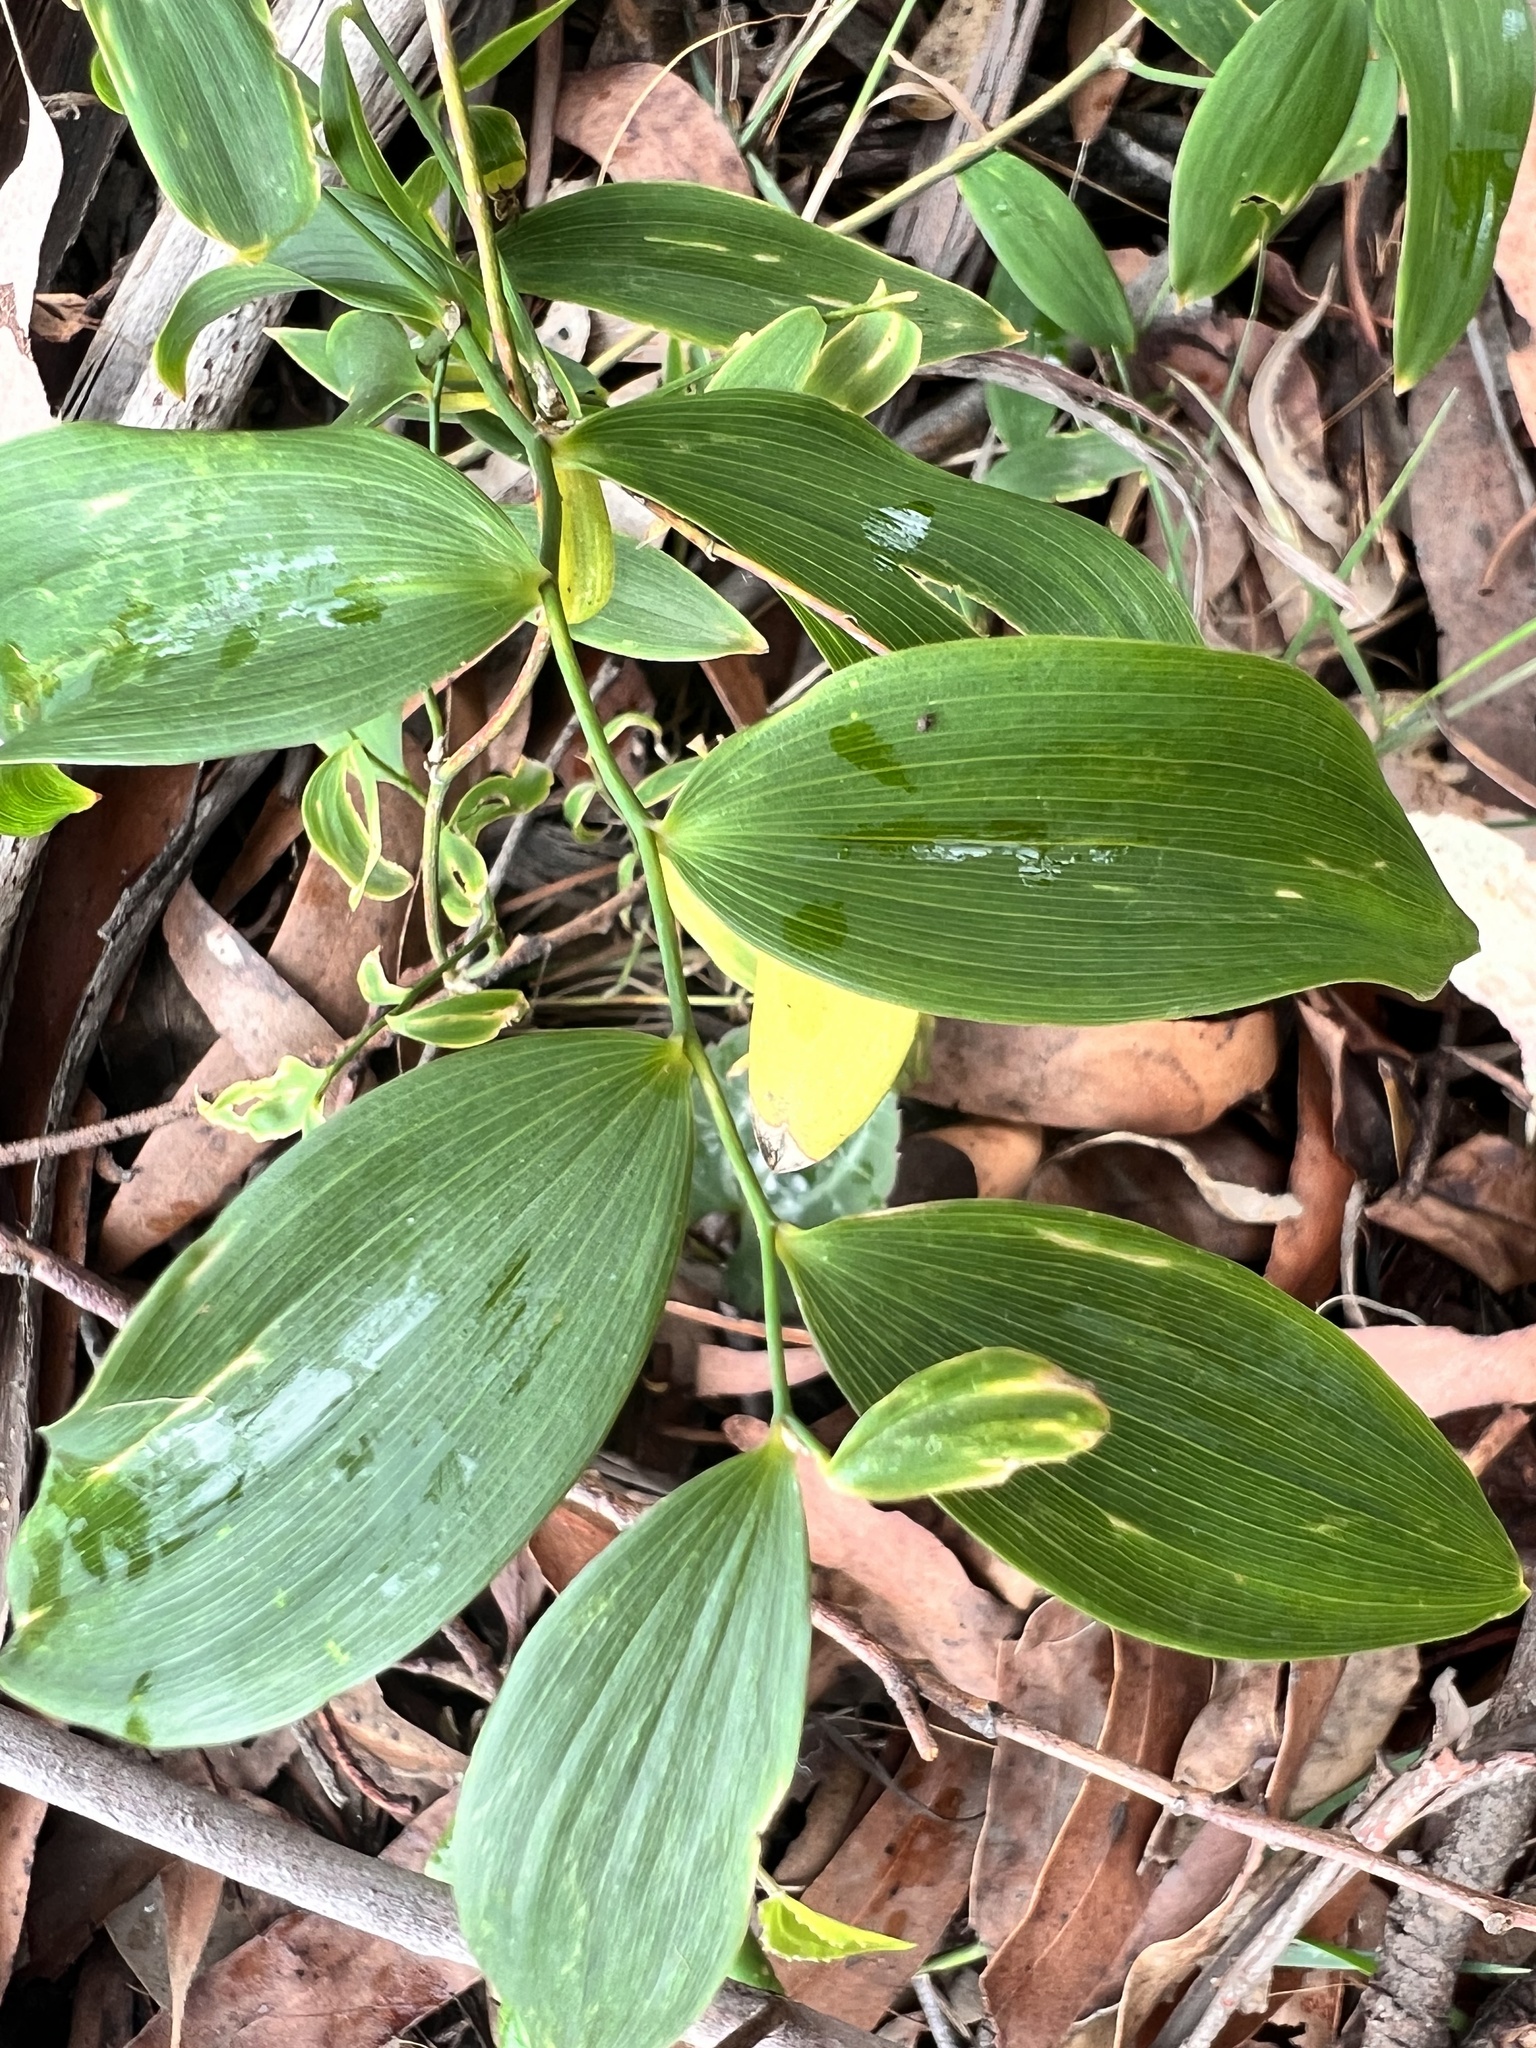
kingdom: Plantae
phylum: Tracheophyta
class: Liliopsida
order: Asparagales
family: Asparagaceae
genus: Eustrephus
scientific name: Eustrephus latifolius
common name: Orangevine
